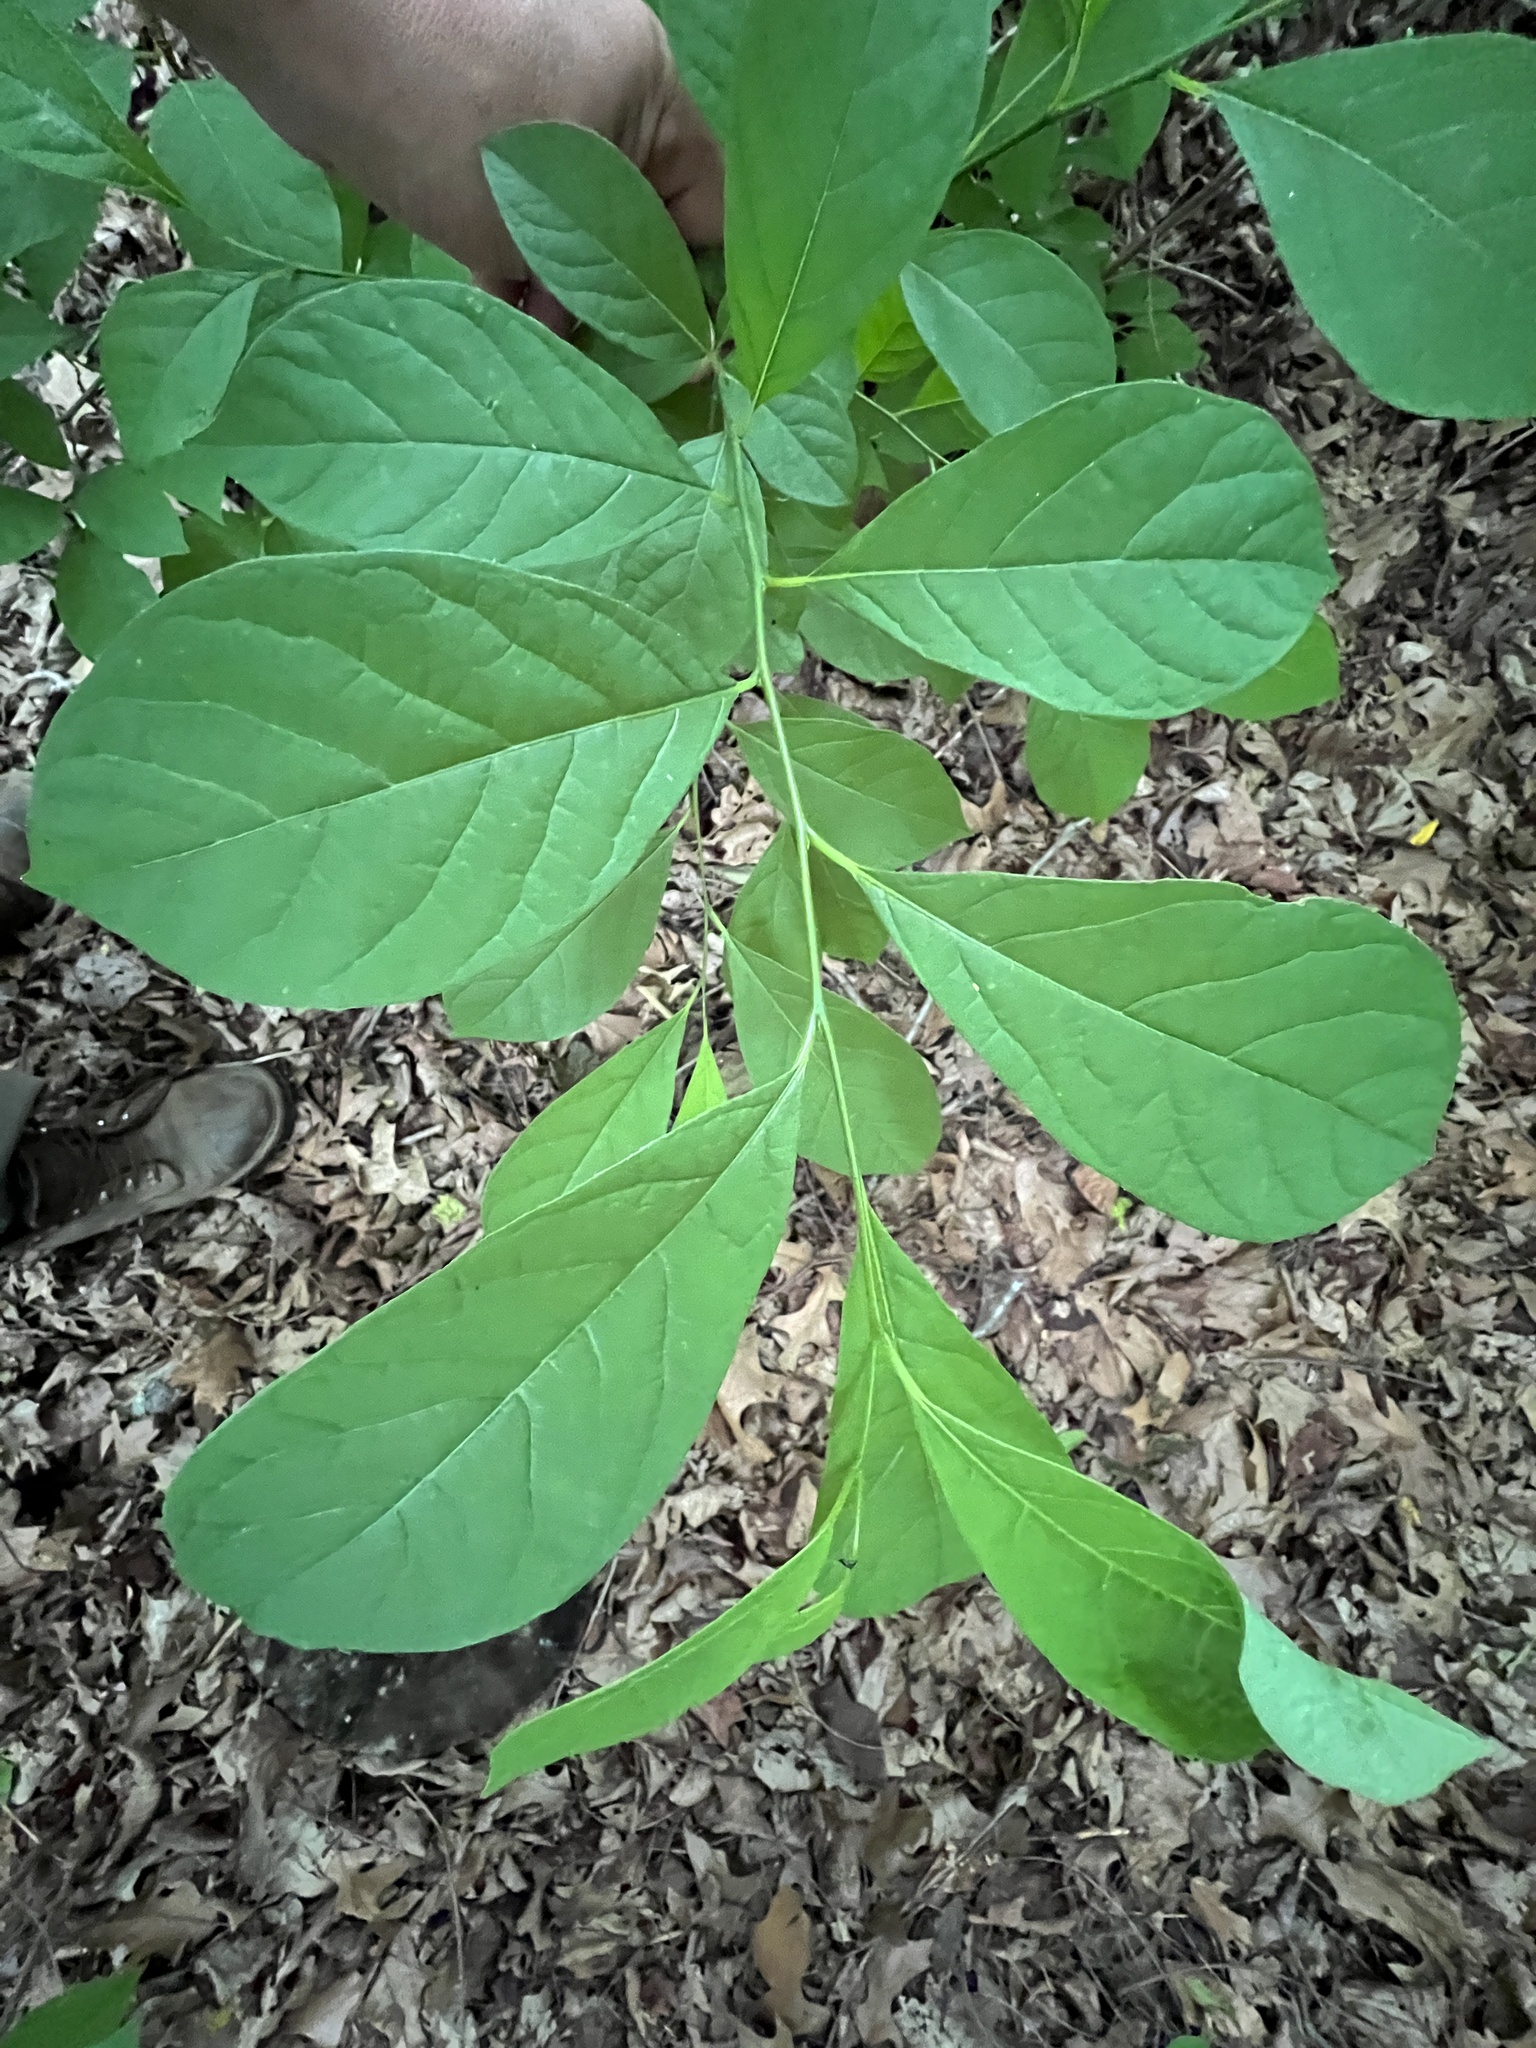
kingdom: Plantae
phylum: Tracheophyta
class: Magnoliopsida
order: Laurales
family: Lauraceae
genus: Lindera
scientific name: Lindera benzoin
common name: Spicebush
